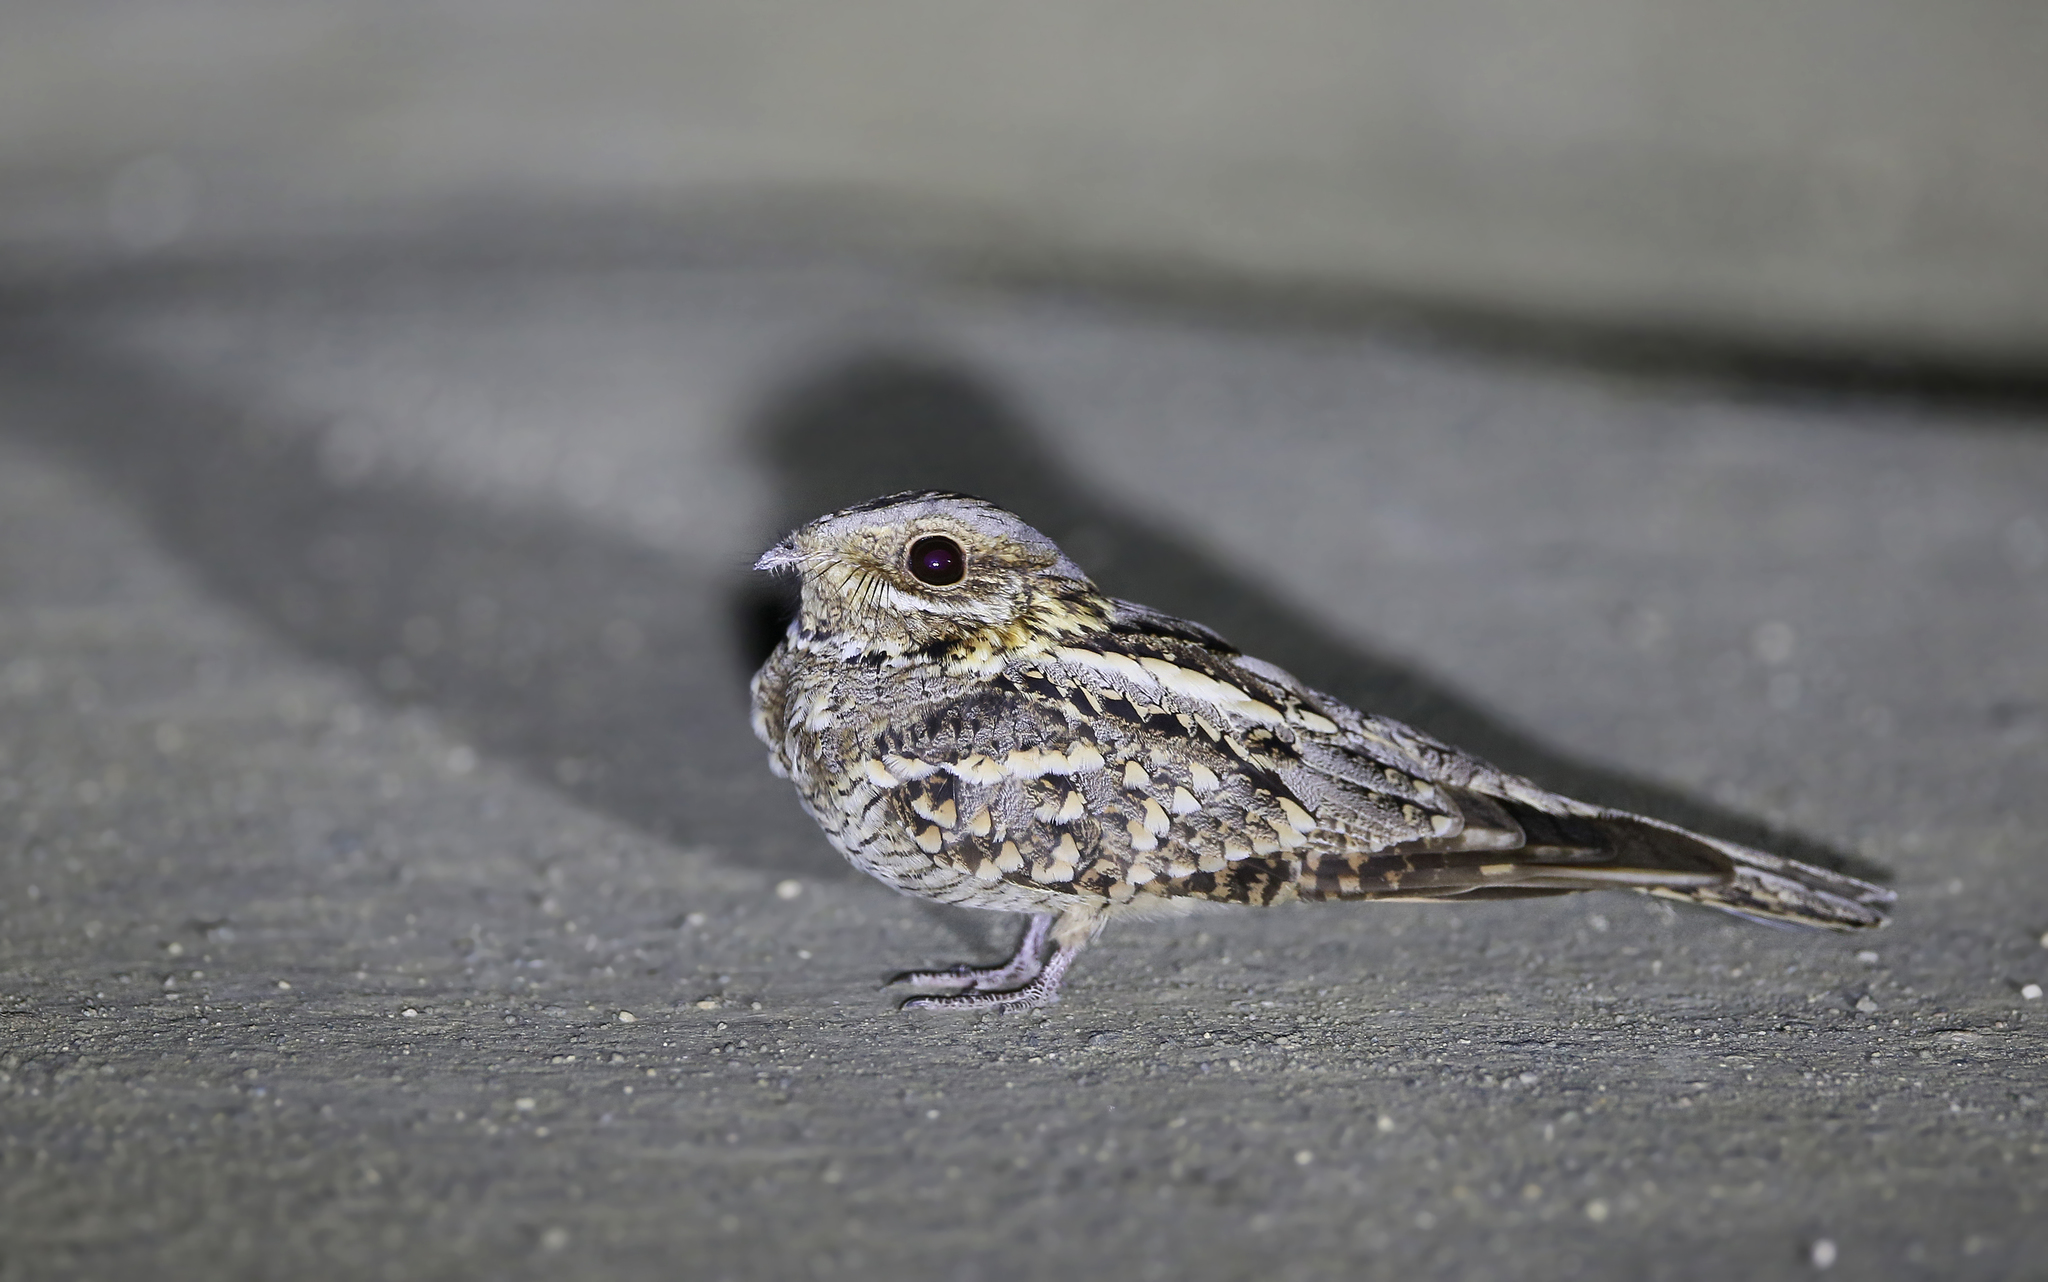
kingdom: Animalia
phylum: Chordata
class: Aves
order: Caprimulgiformes
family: Caprimulgidae
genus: Caprimulgus
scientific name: Caprimulgus ruficollis
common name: Red-necked nightjar
